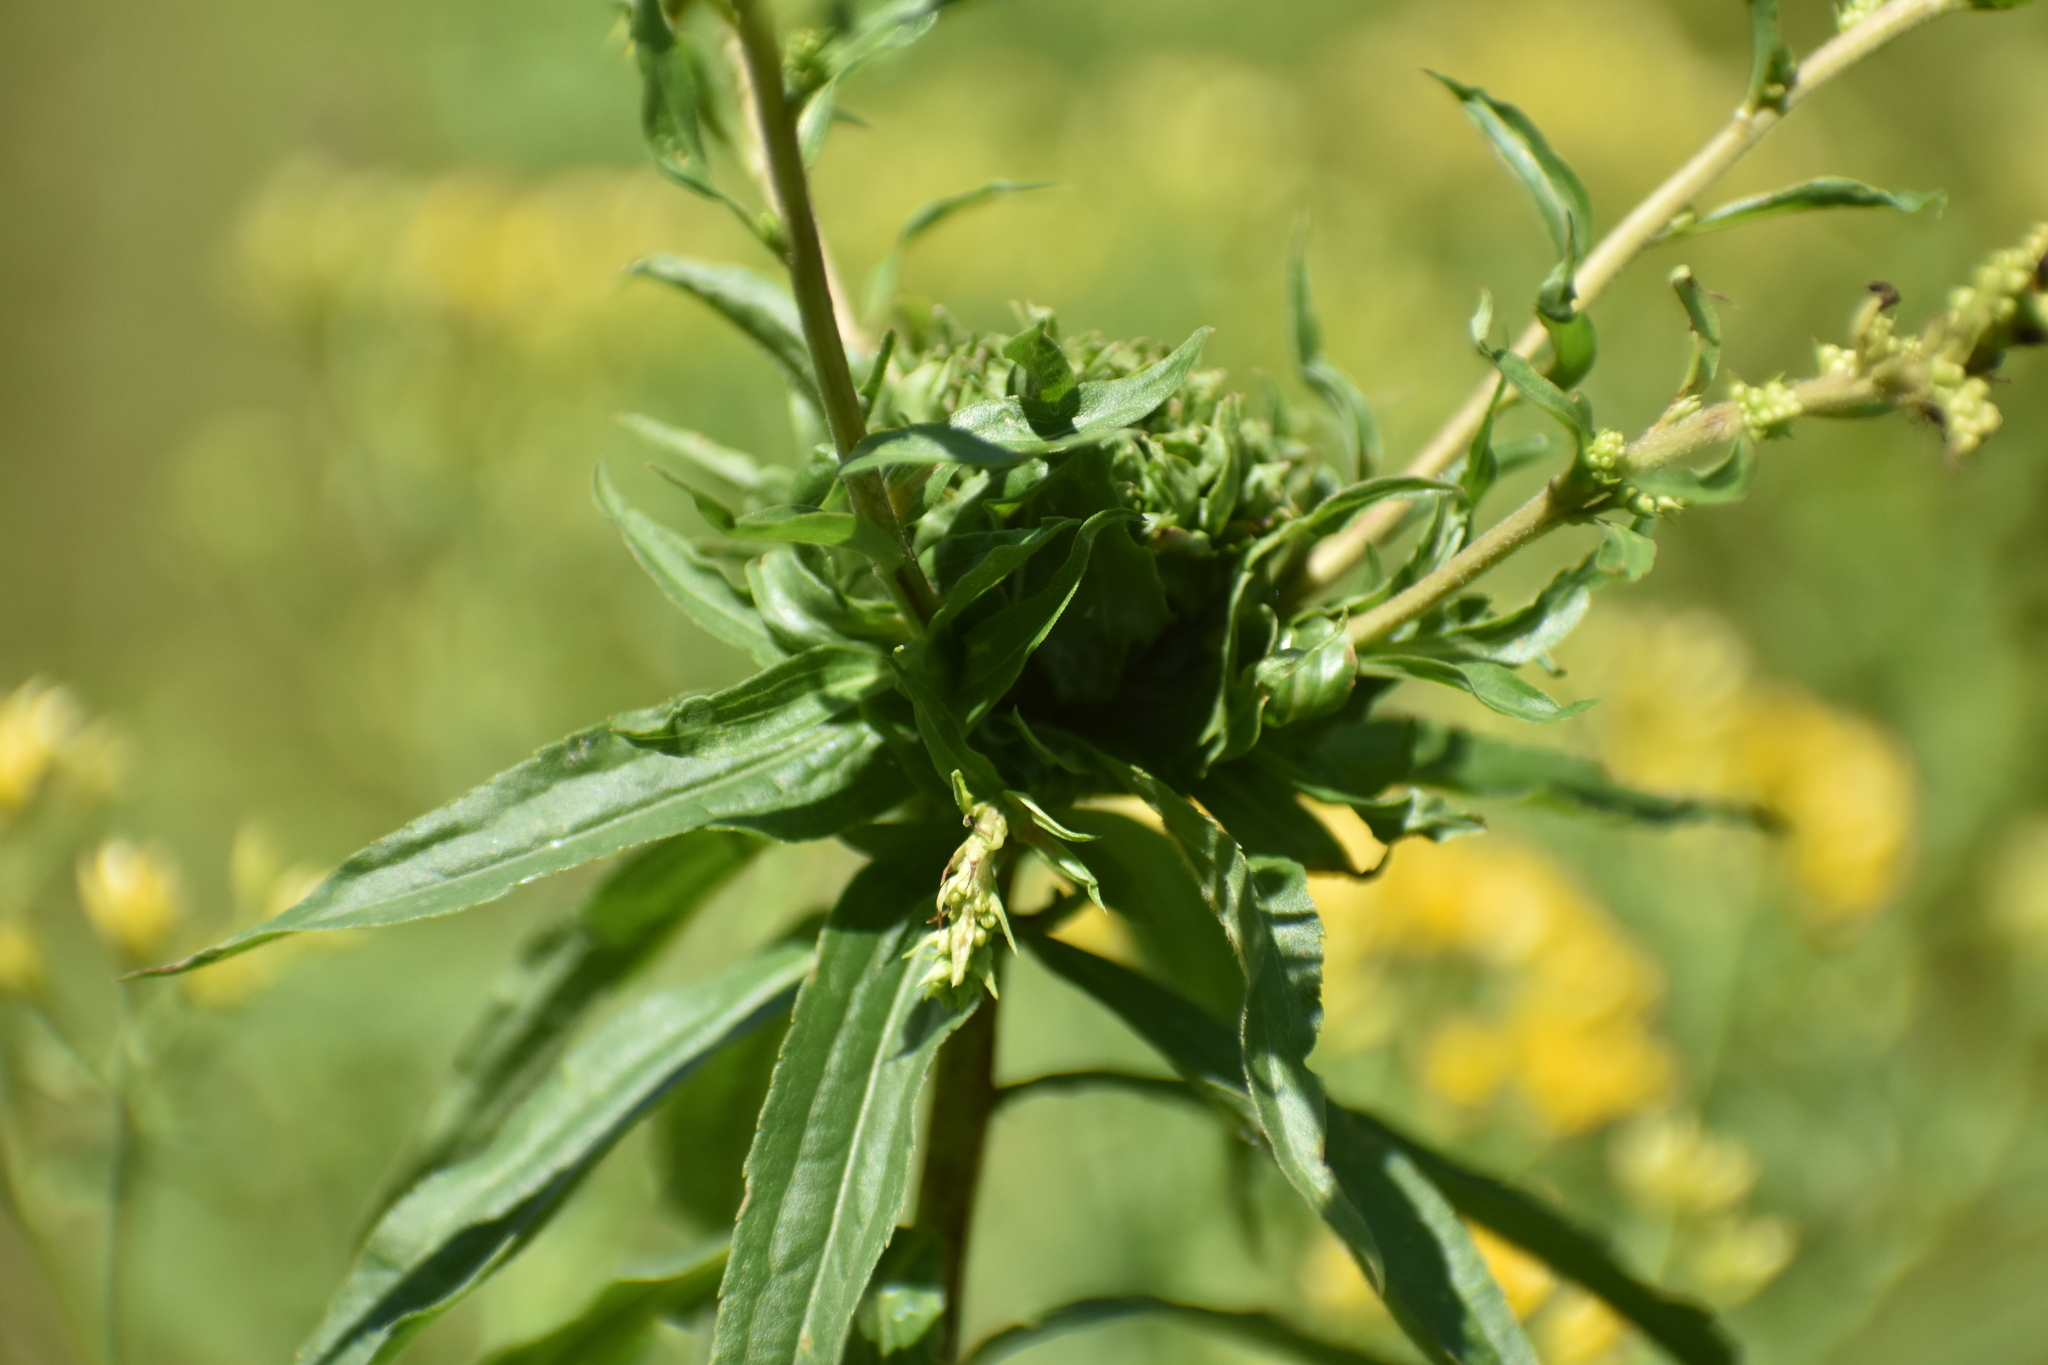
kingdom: Animalia
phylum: Arthropoda
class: Insecta
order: Diptera
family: Cecidomyiidae
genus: Rhopalomyia
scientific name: Rhopalomyia solidaginis
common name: Goldenrod bunch gall midge
